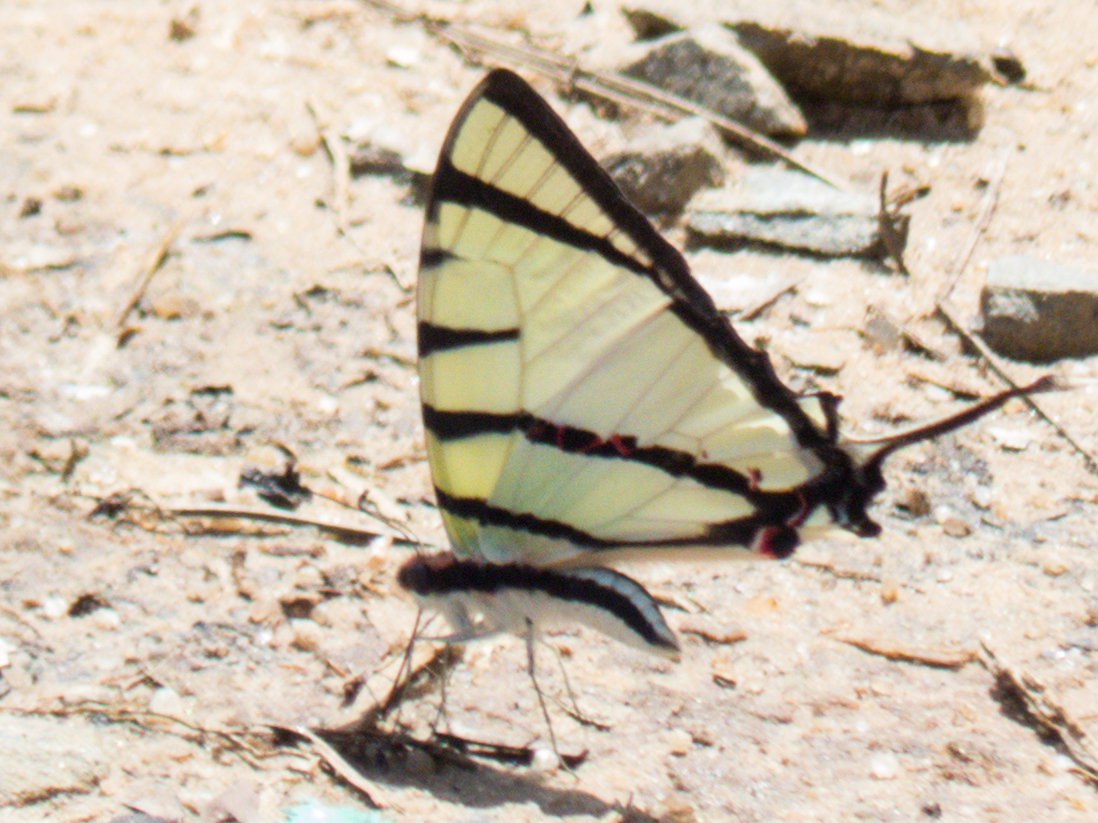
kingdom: Animalia
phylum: Arthropoda
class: Insecta
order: Lepidoptera
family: Papilionidae
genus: Graphium
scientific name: Graphium agetes
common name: Fourbar swordtail
